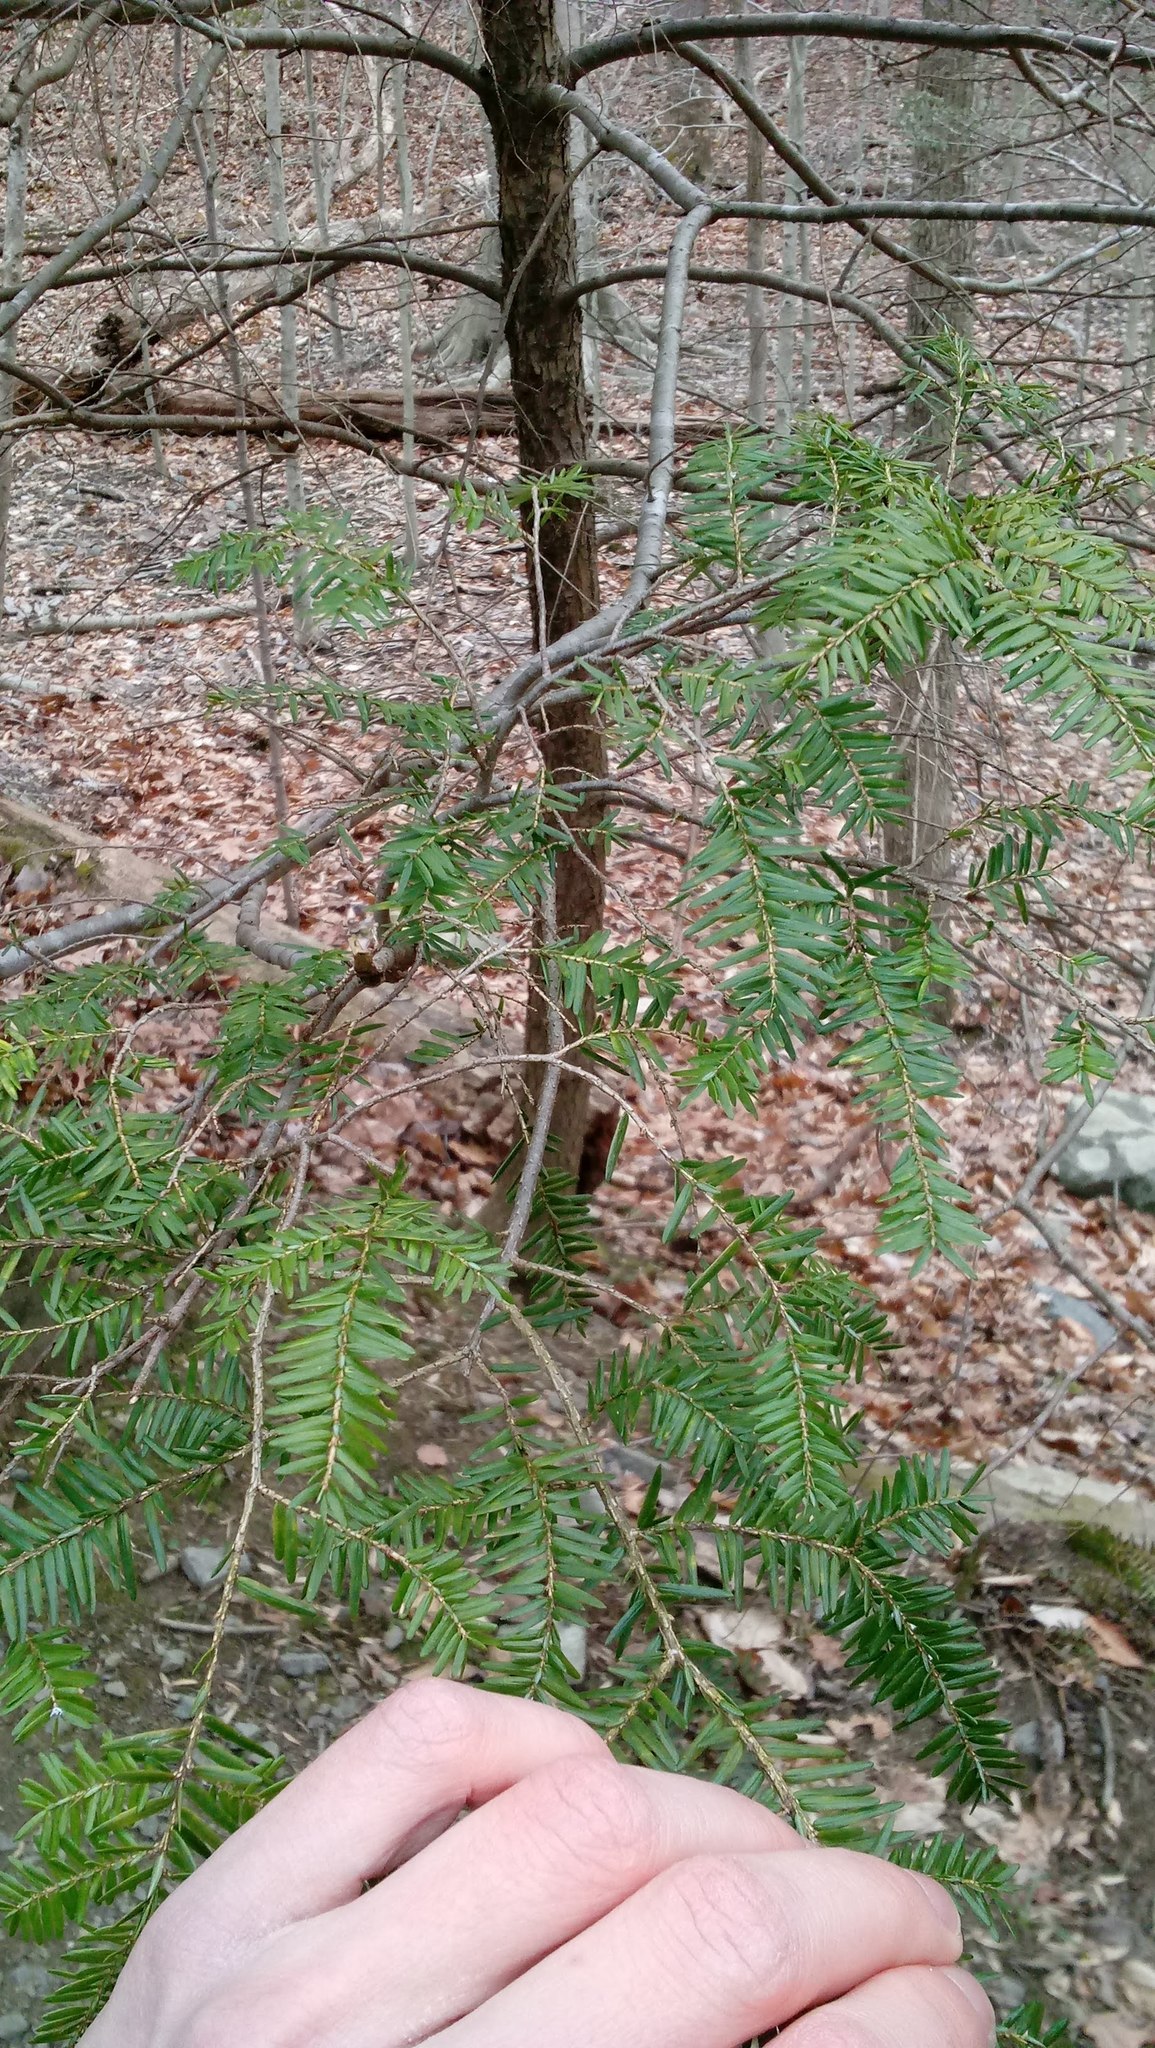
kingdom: Plantae
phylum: Tracheophyta
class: Pinopsida
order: Pinales
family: Pinaceae
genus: Tsuga
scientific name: Tsuga canadensis
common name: Eastern hemlock
